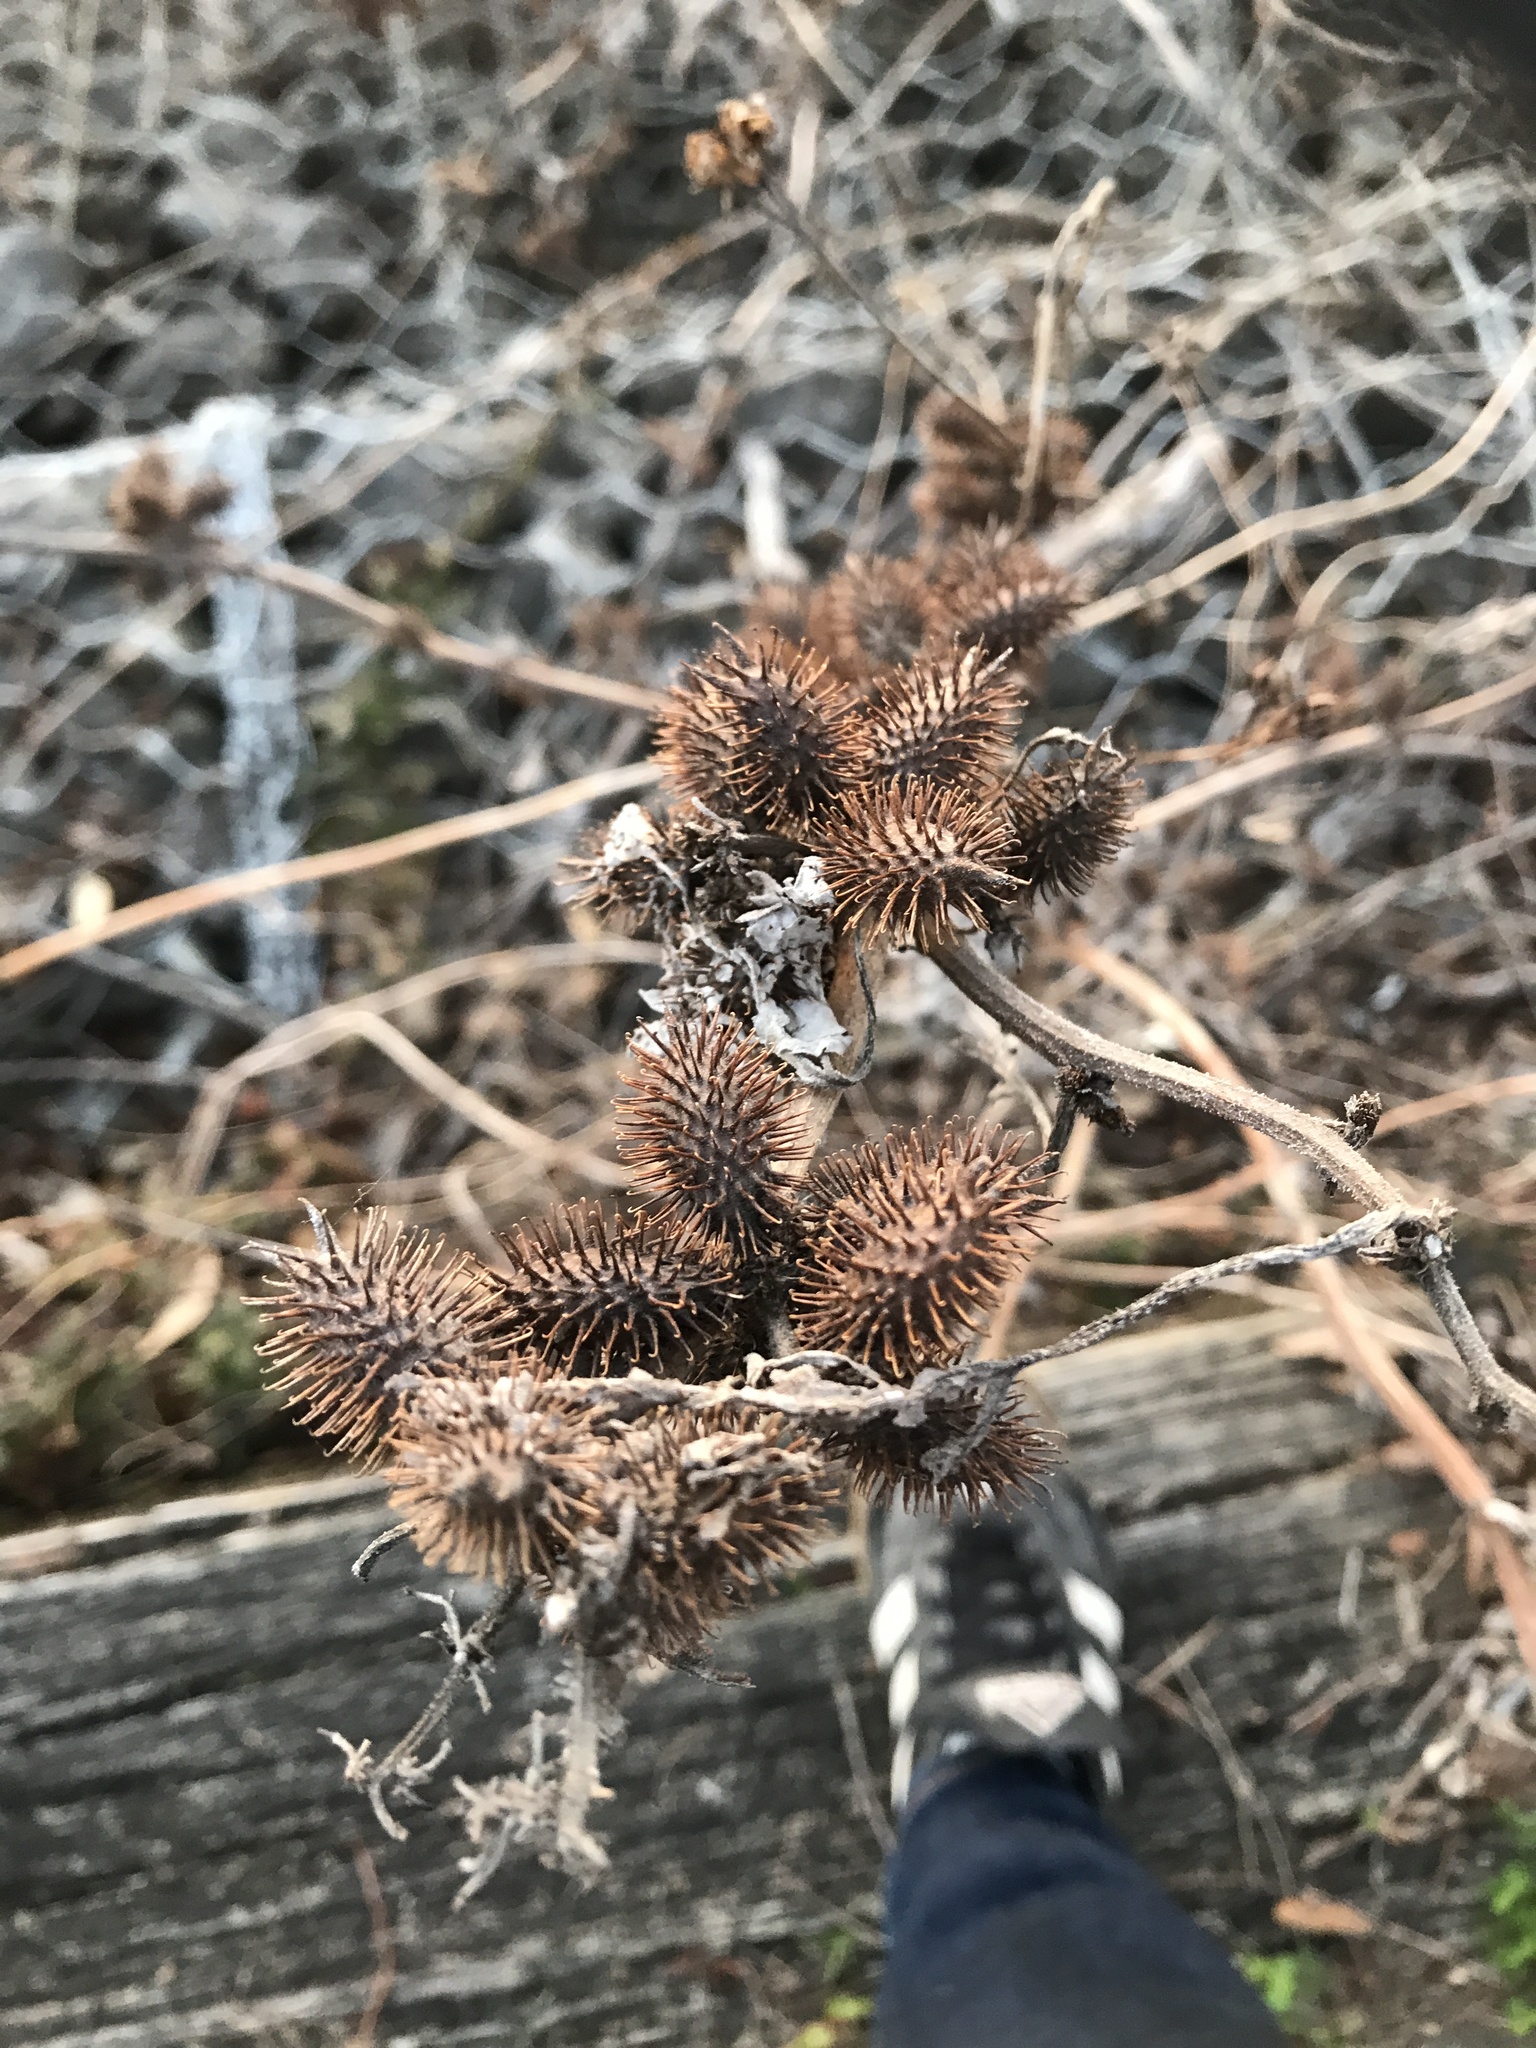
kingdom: Plantae
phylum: Tracheophyta
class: Magnoliopsida
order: Asterales
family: Asteraceae
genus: Xanthium
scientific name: Xanthium strumarium
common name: Rough cocklebur
